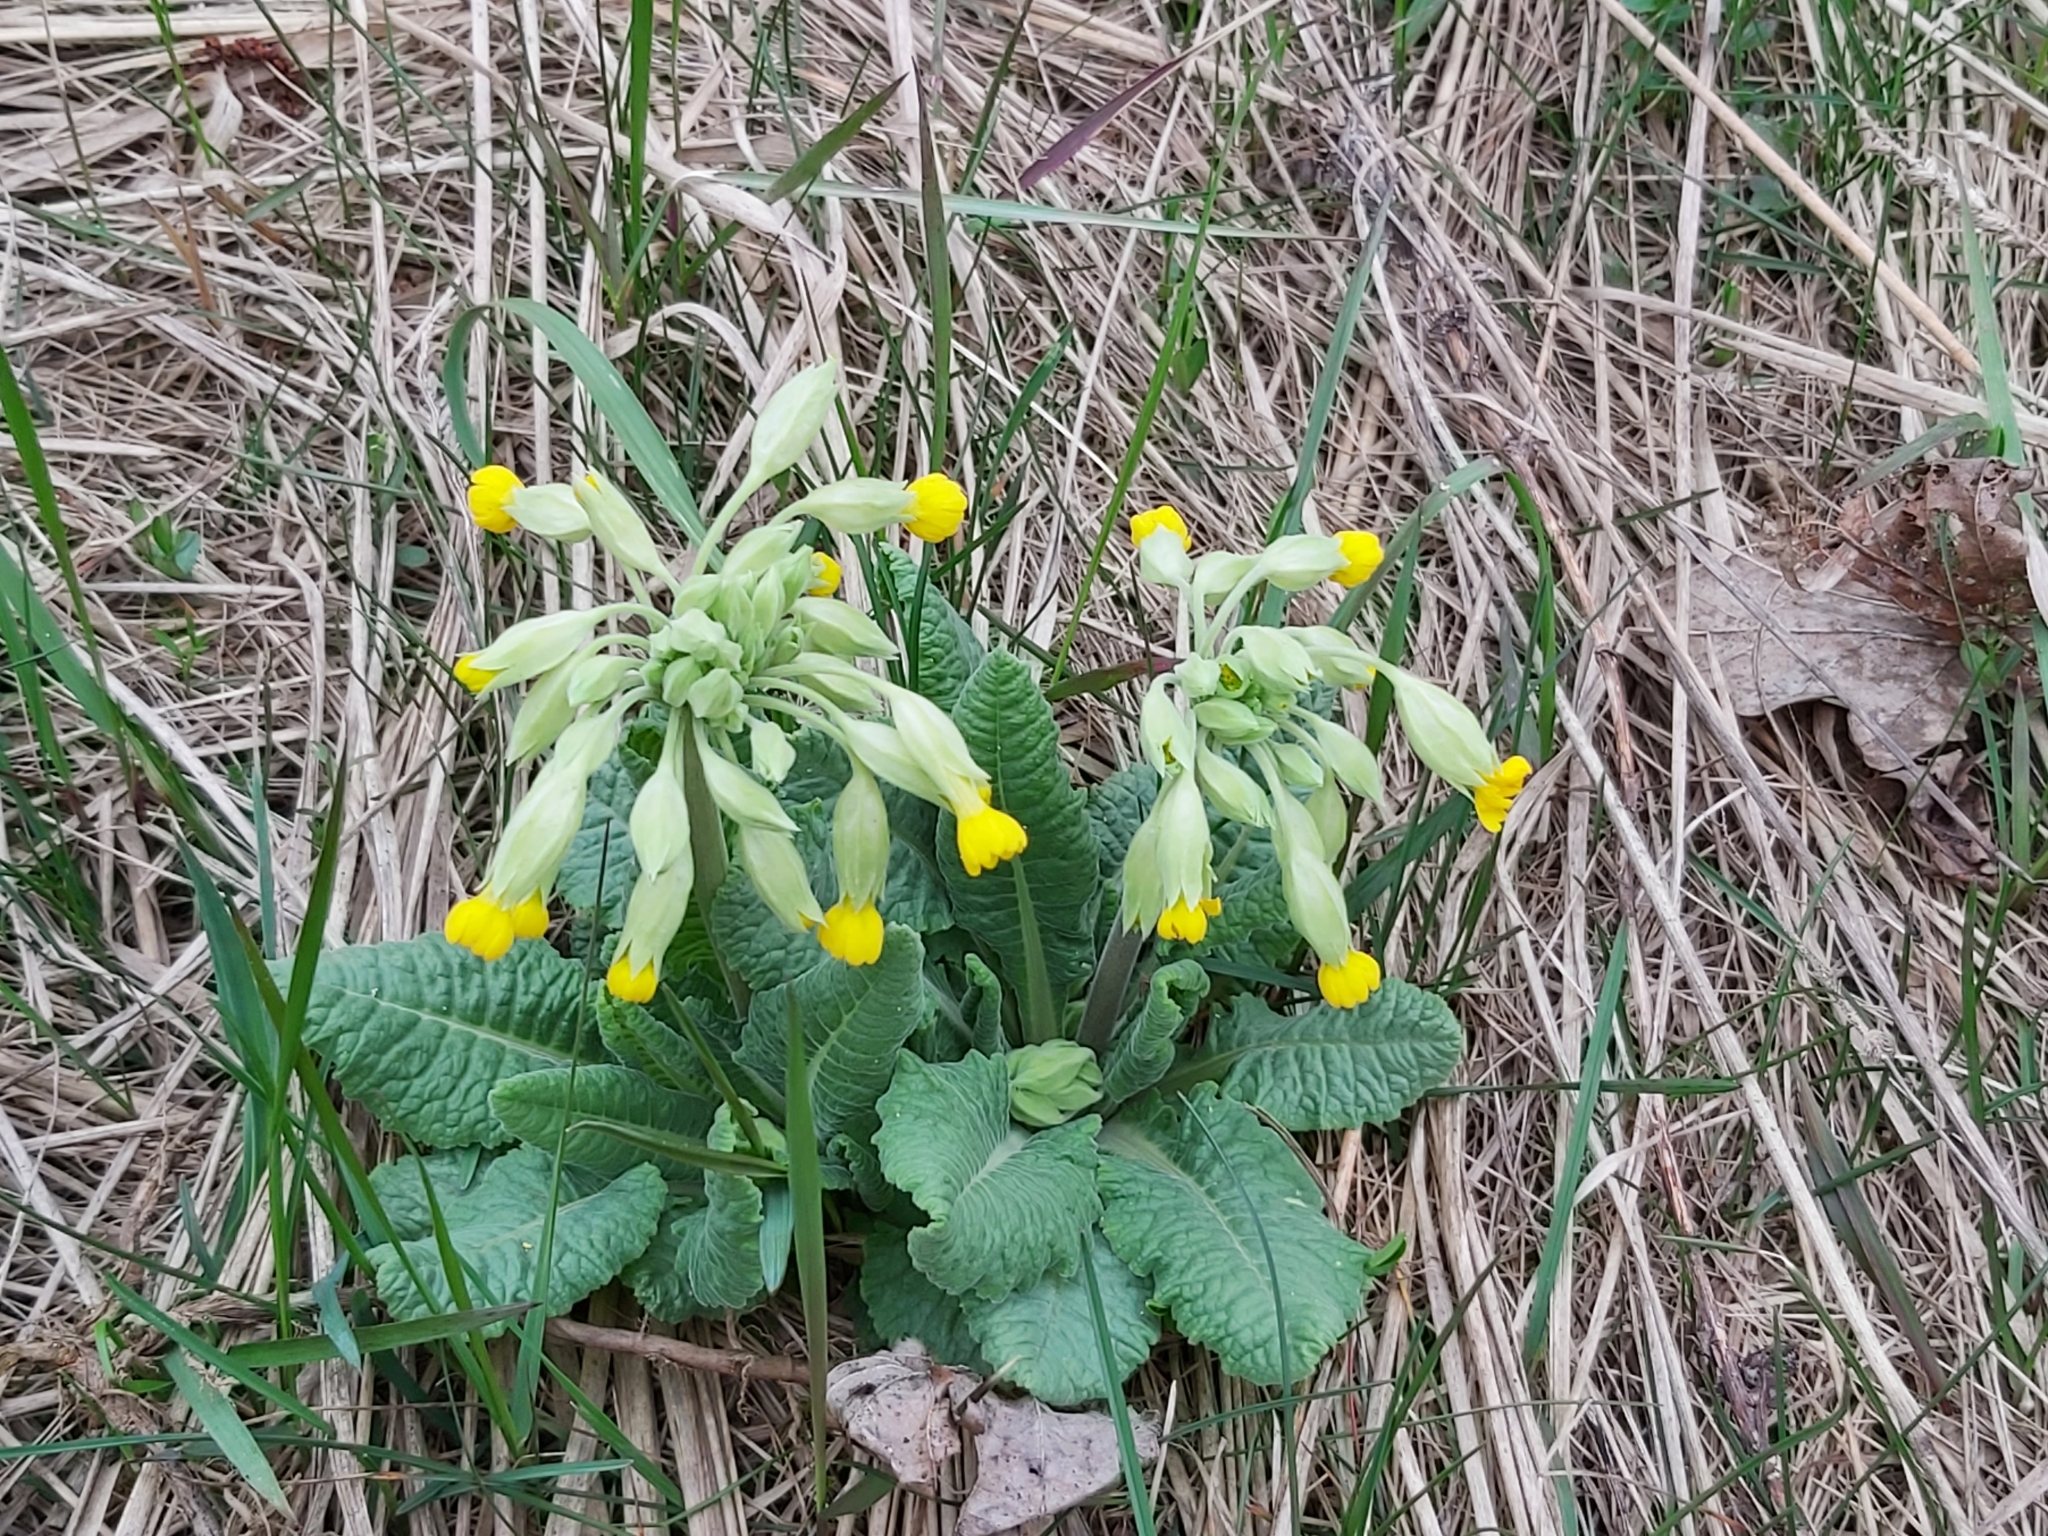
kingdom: Plantae
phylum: Tracheophyta
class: Magnoliopsida
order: Ericales
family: Primulaceae
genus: Primula
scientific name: Primula veris
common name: Cowslip
